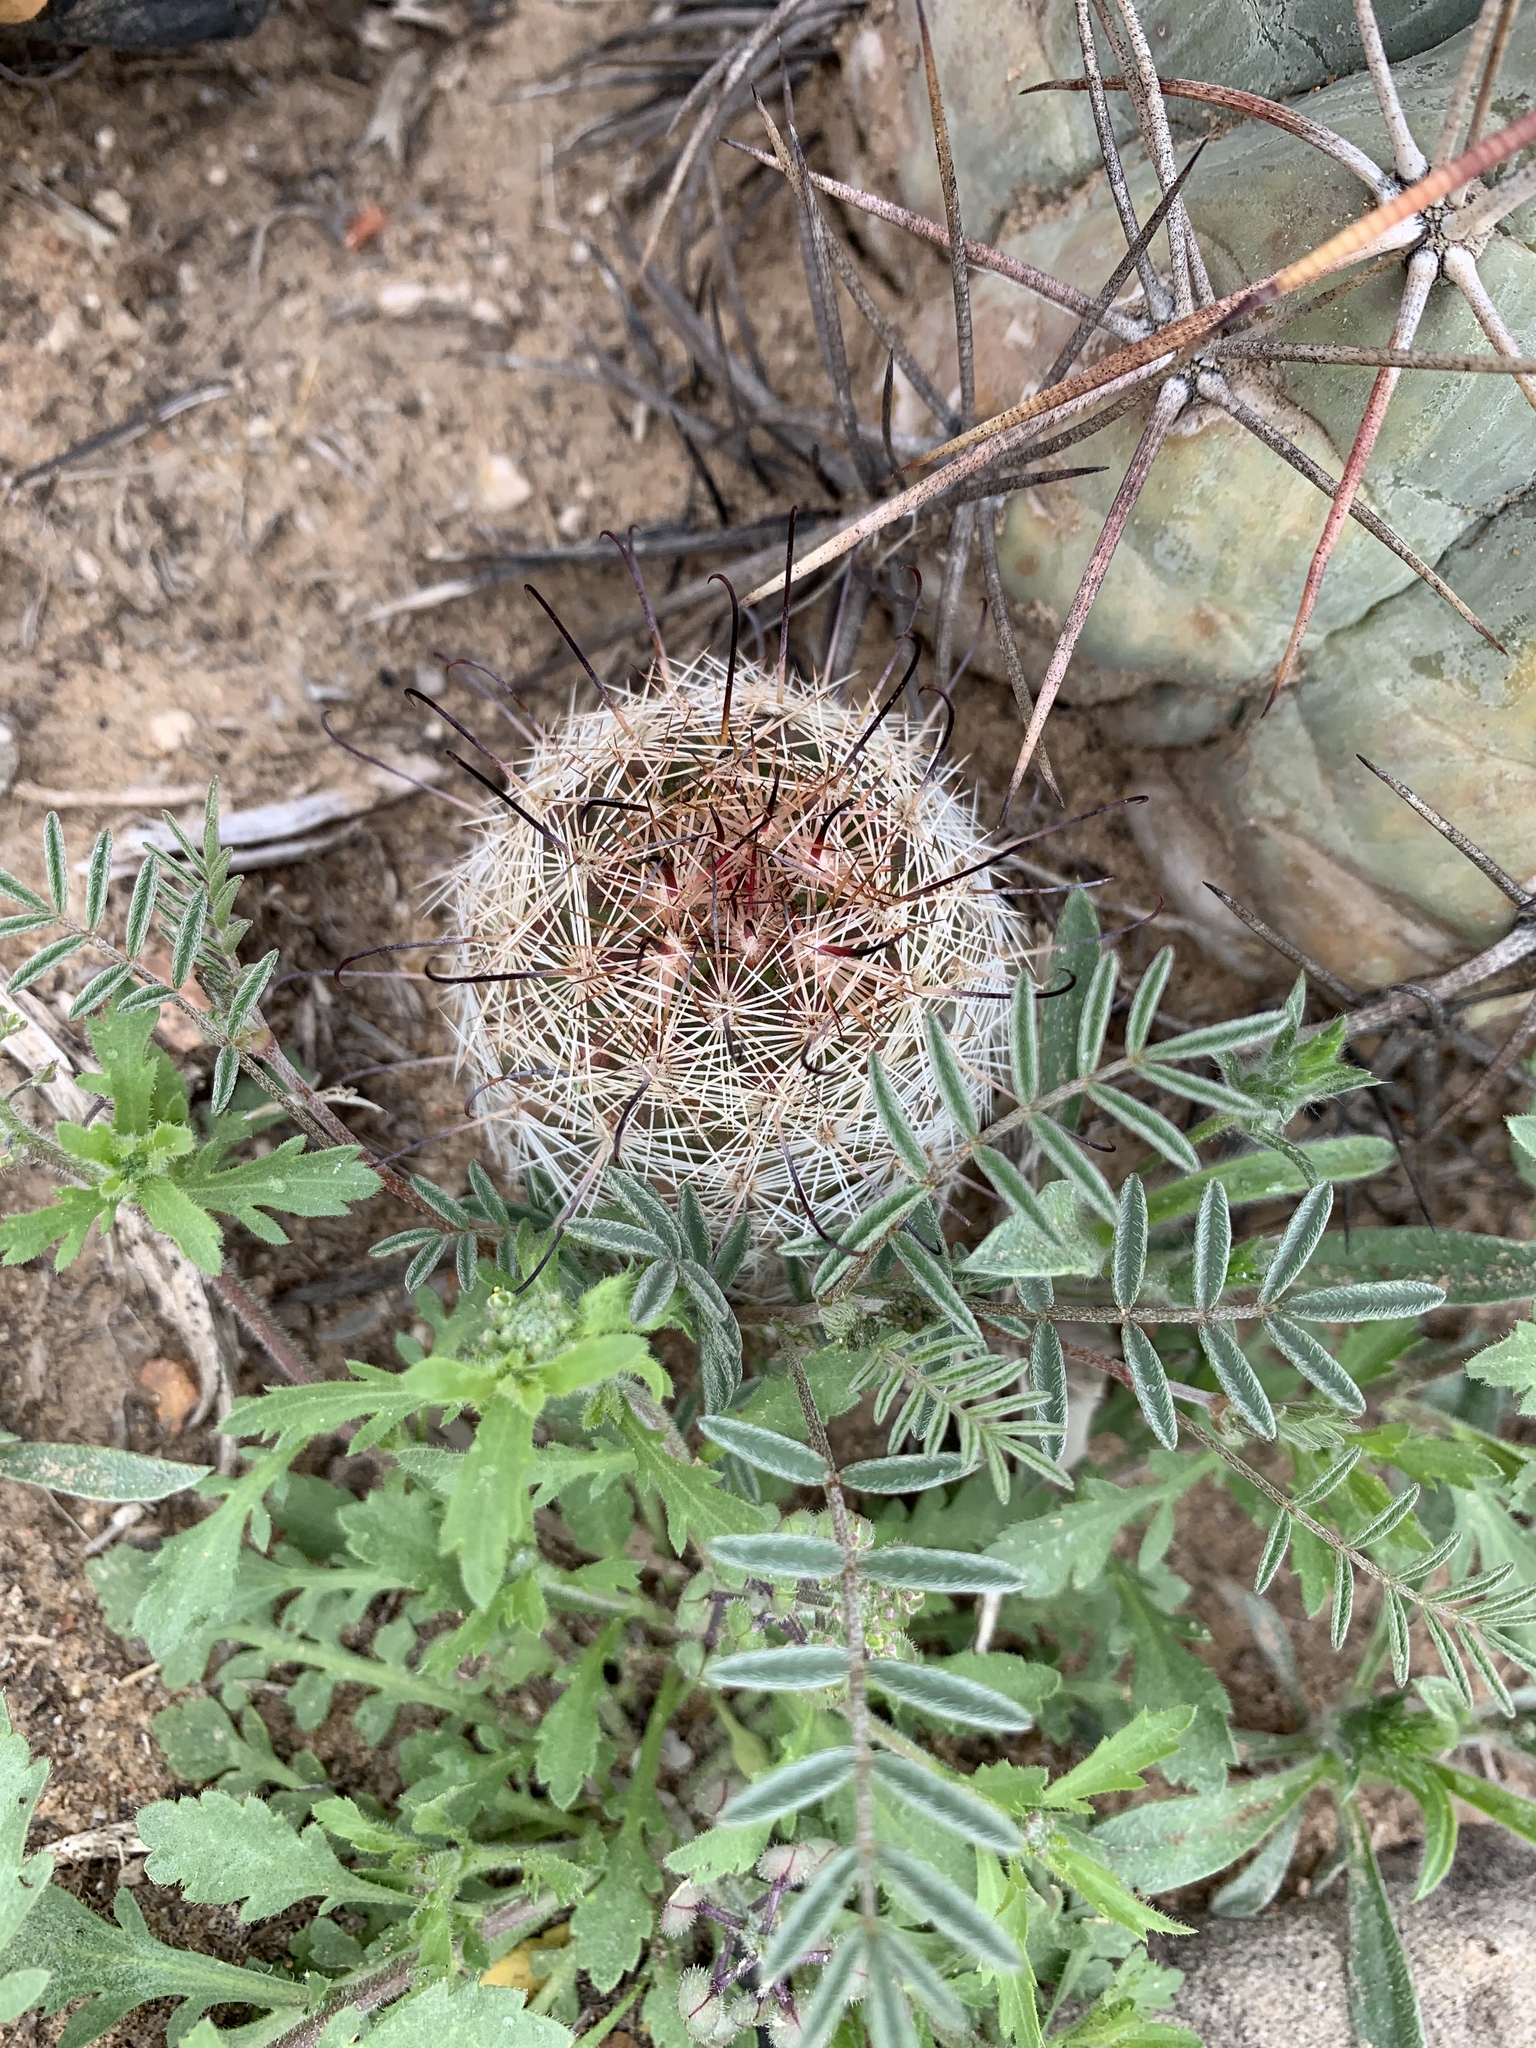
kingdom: Plantae
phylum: Tracheophyta
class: Magnoliopsida
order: Caryophyllales
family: Cactaceae
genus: Cochemiea
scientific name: Cochemiea grahamii
